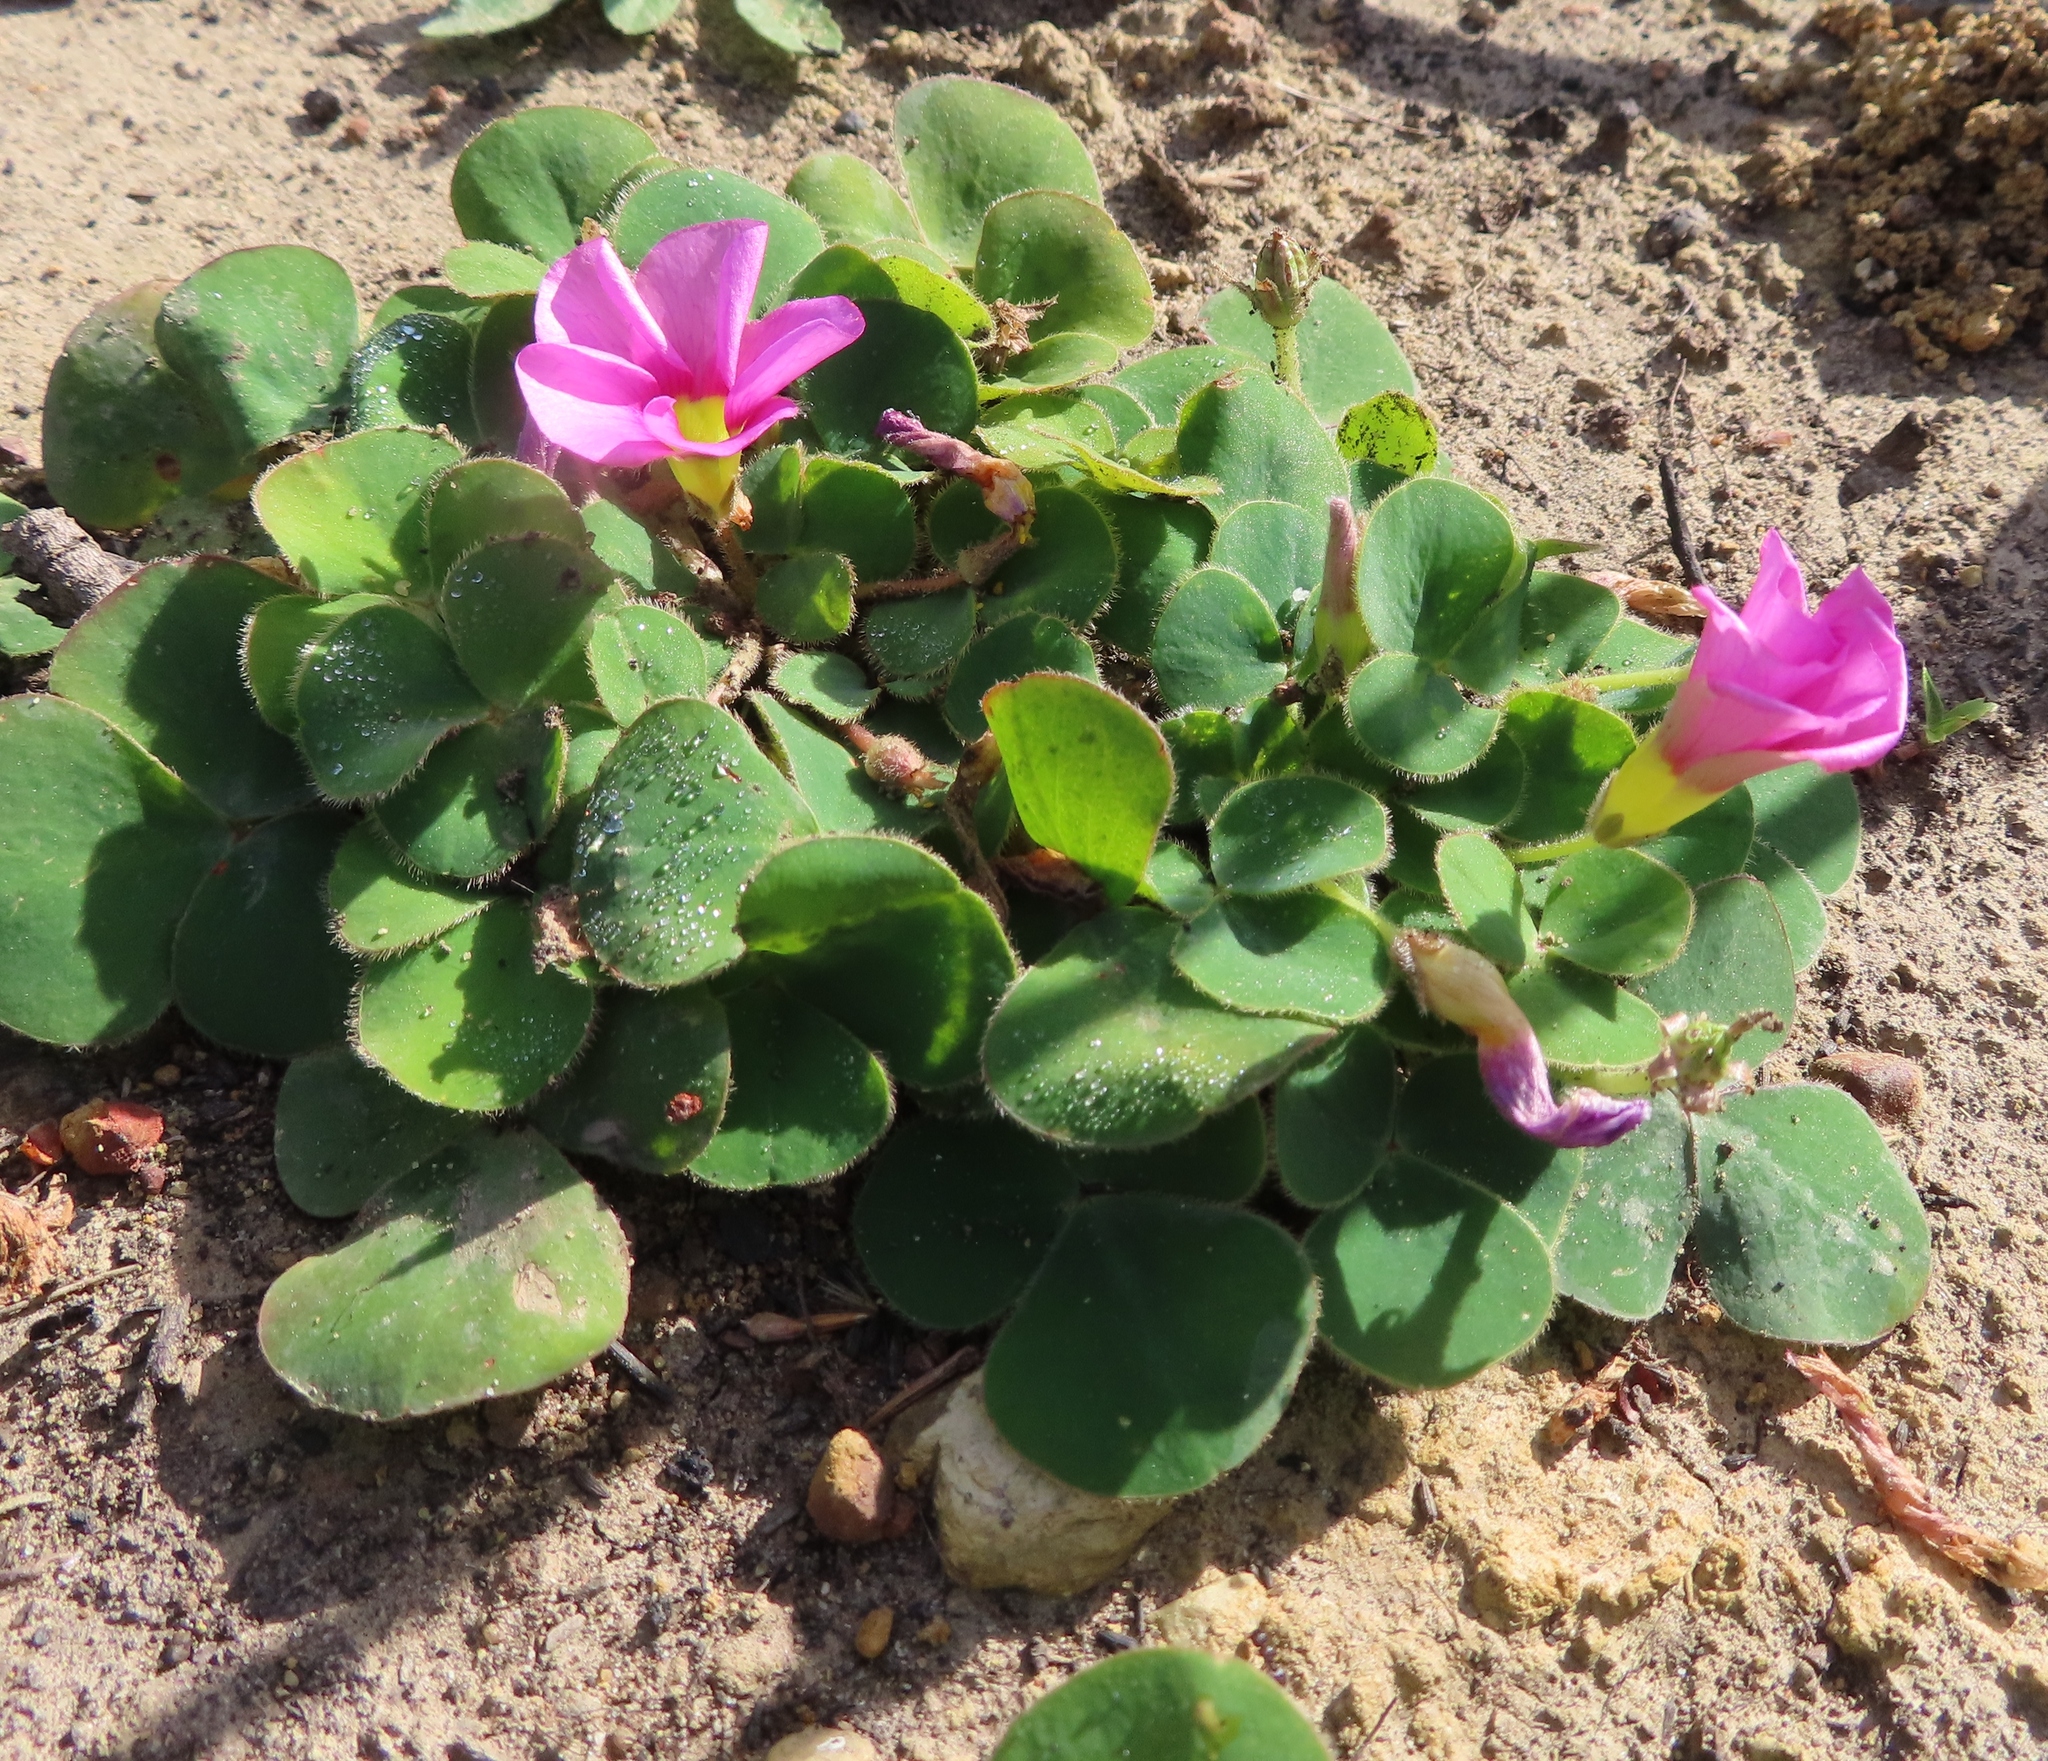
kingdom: Plantae
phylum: Tracheophyta
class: Magnoliopsida
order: Oxalidales
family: Oxalidaceae
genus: Oxalis
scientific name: Oxalis purpurea
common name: Purple woodsorrel
